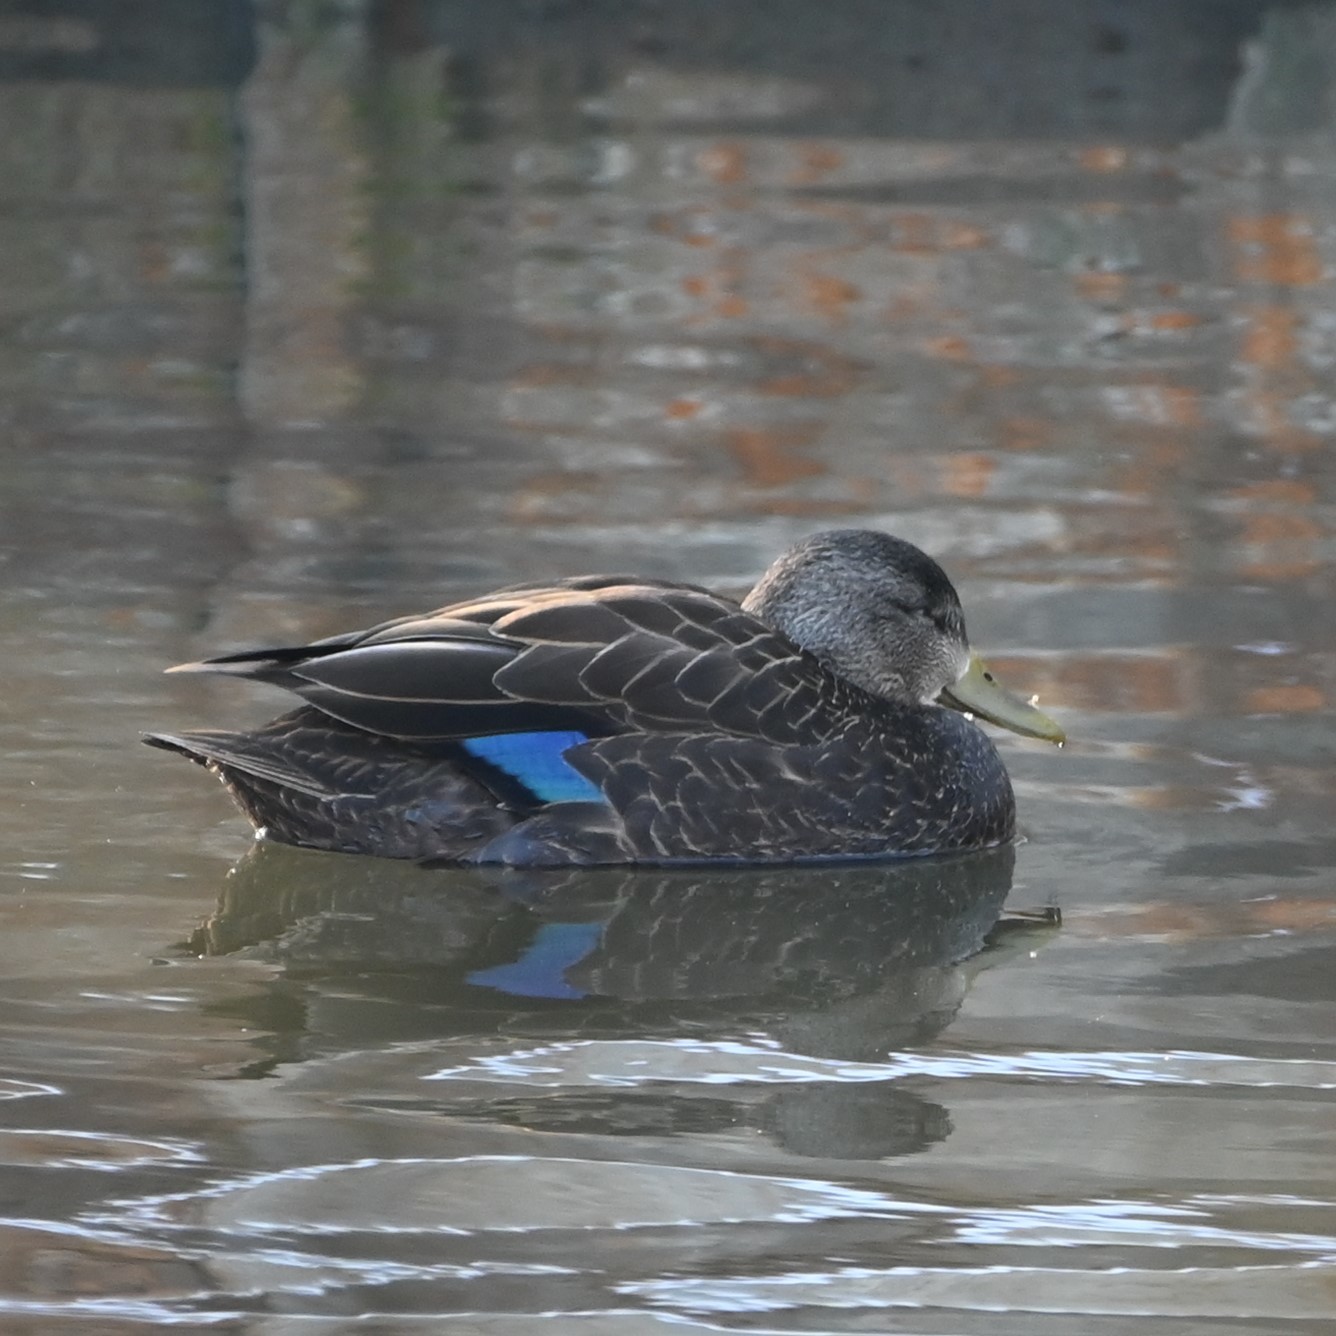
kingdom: Animalia
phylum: Chordata
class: Aves
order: Anseriformes
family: Anatidae
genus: Anas
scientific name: Anas rubripes
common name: American black duck
